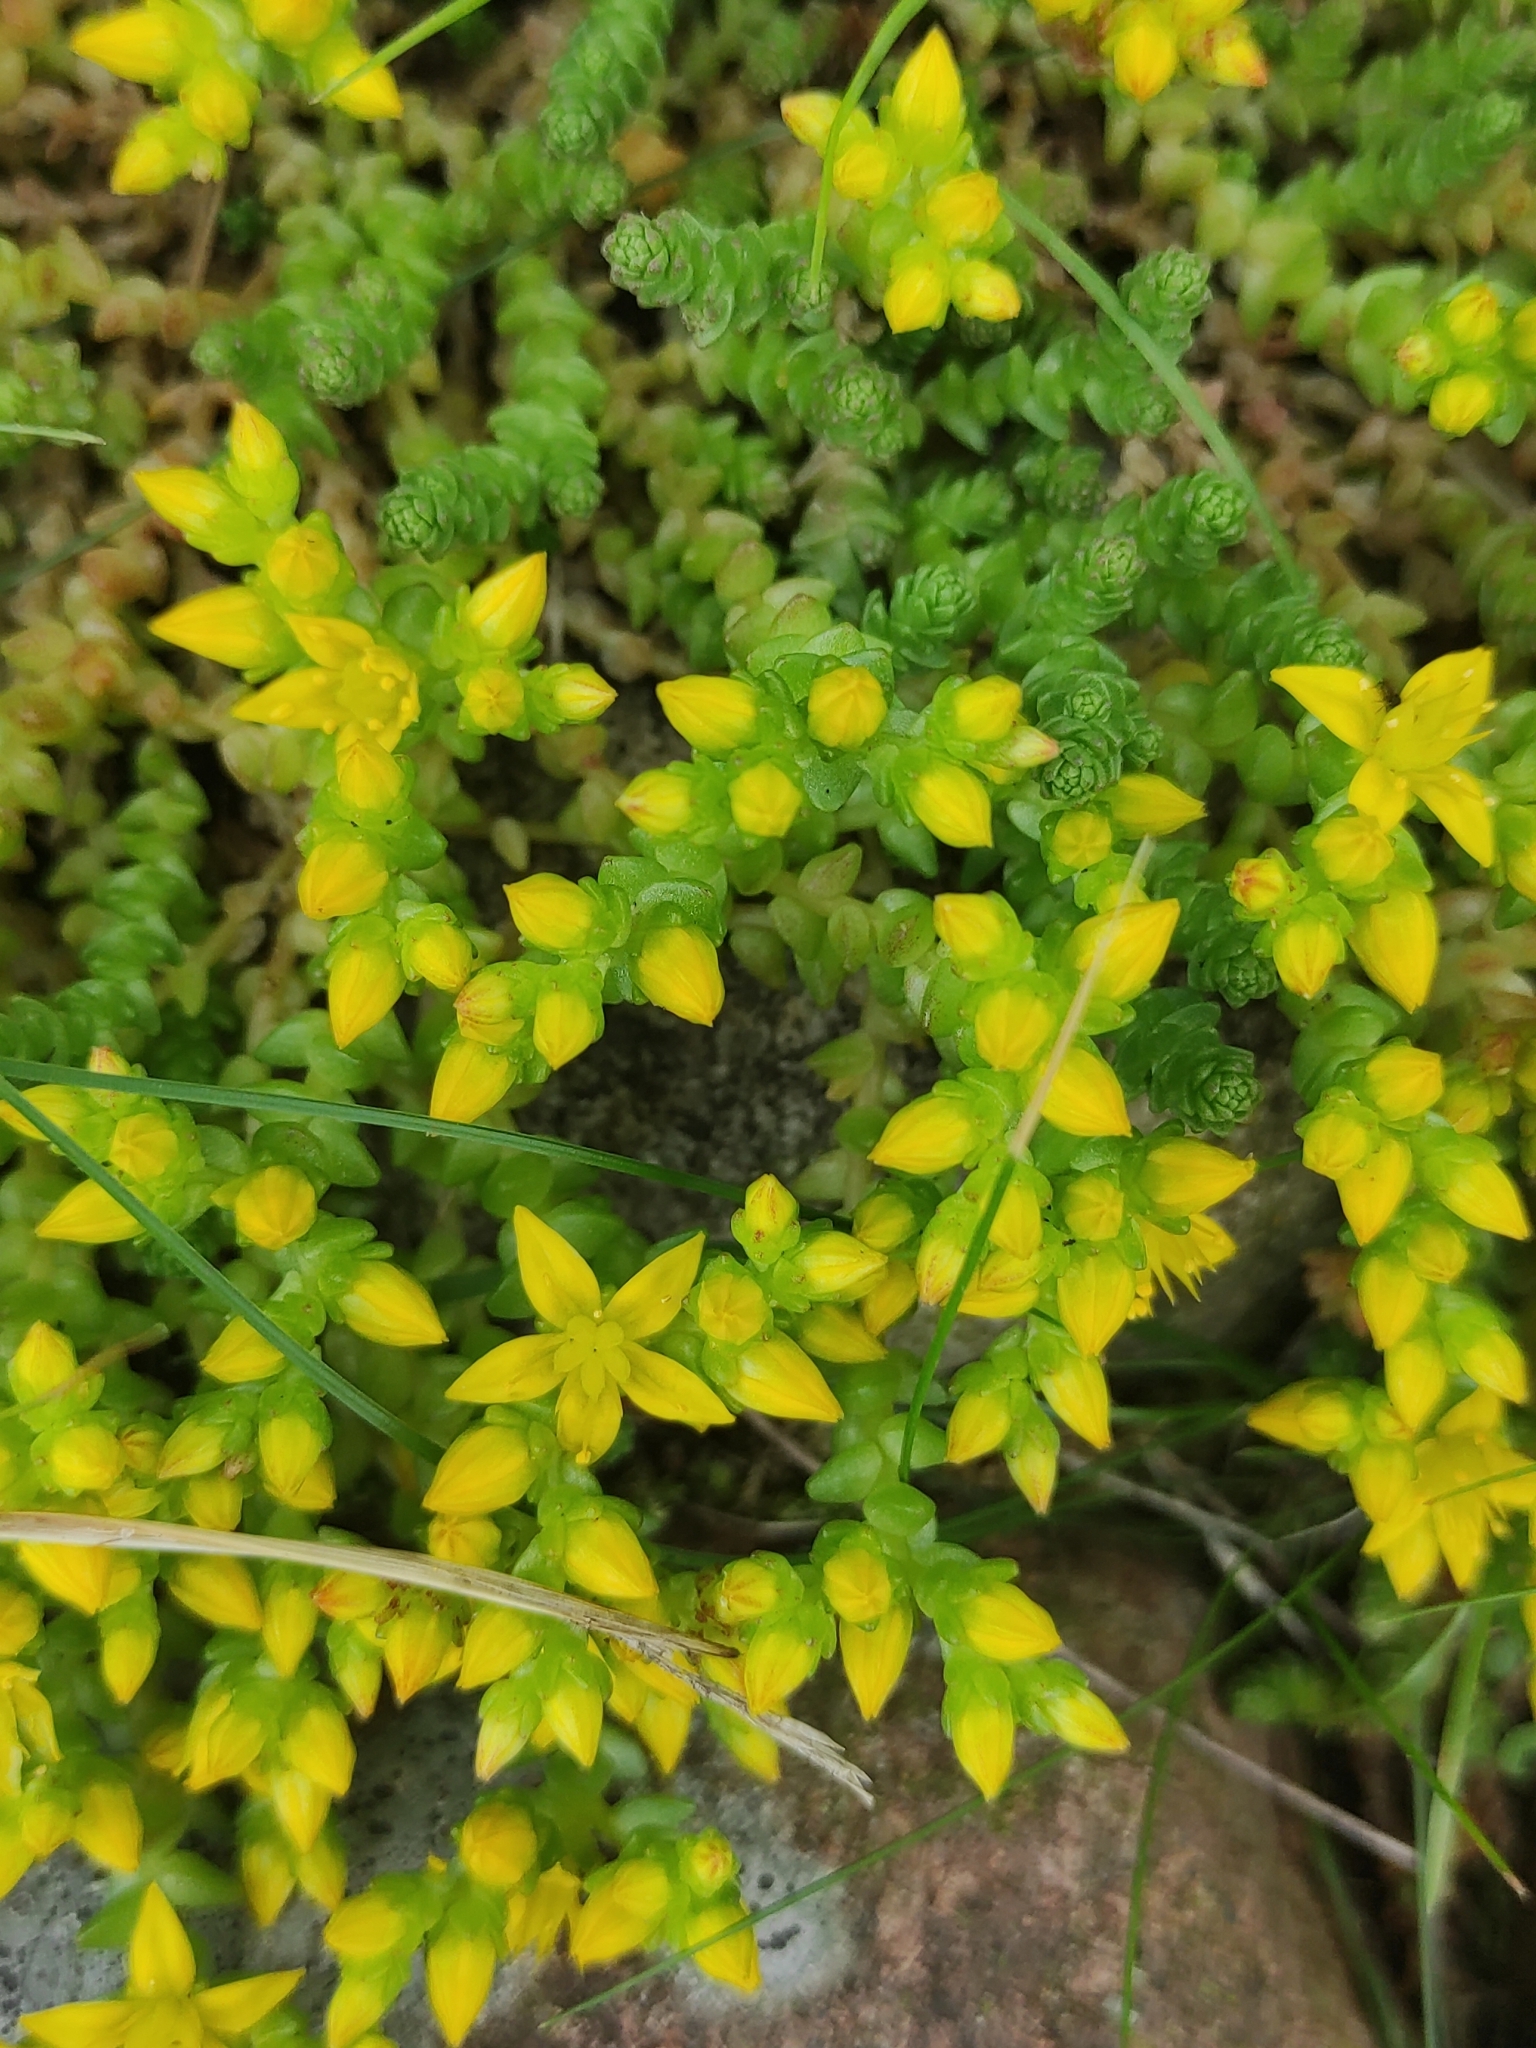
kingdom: Plantae
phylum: Tracheophyta
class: Magnoliopsida
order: Saxifragales
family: Crassulaceae
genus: Sedum
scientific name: Sedum acre
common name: Biting stonecrop
